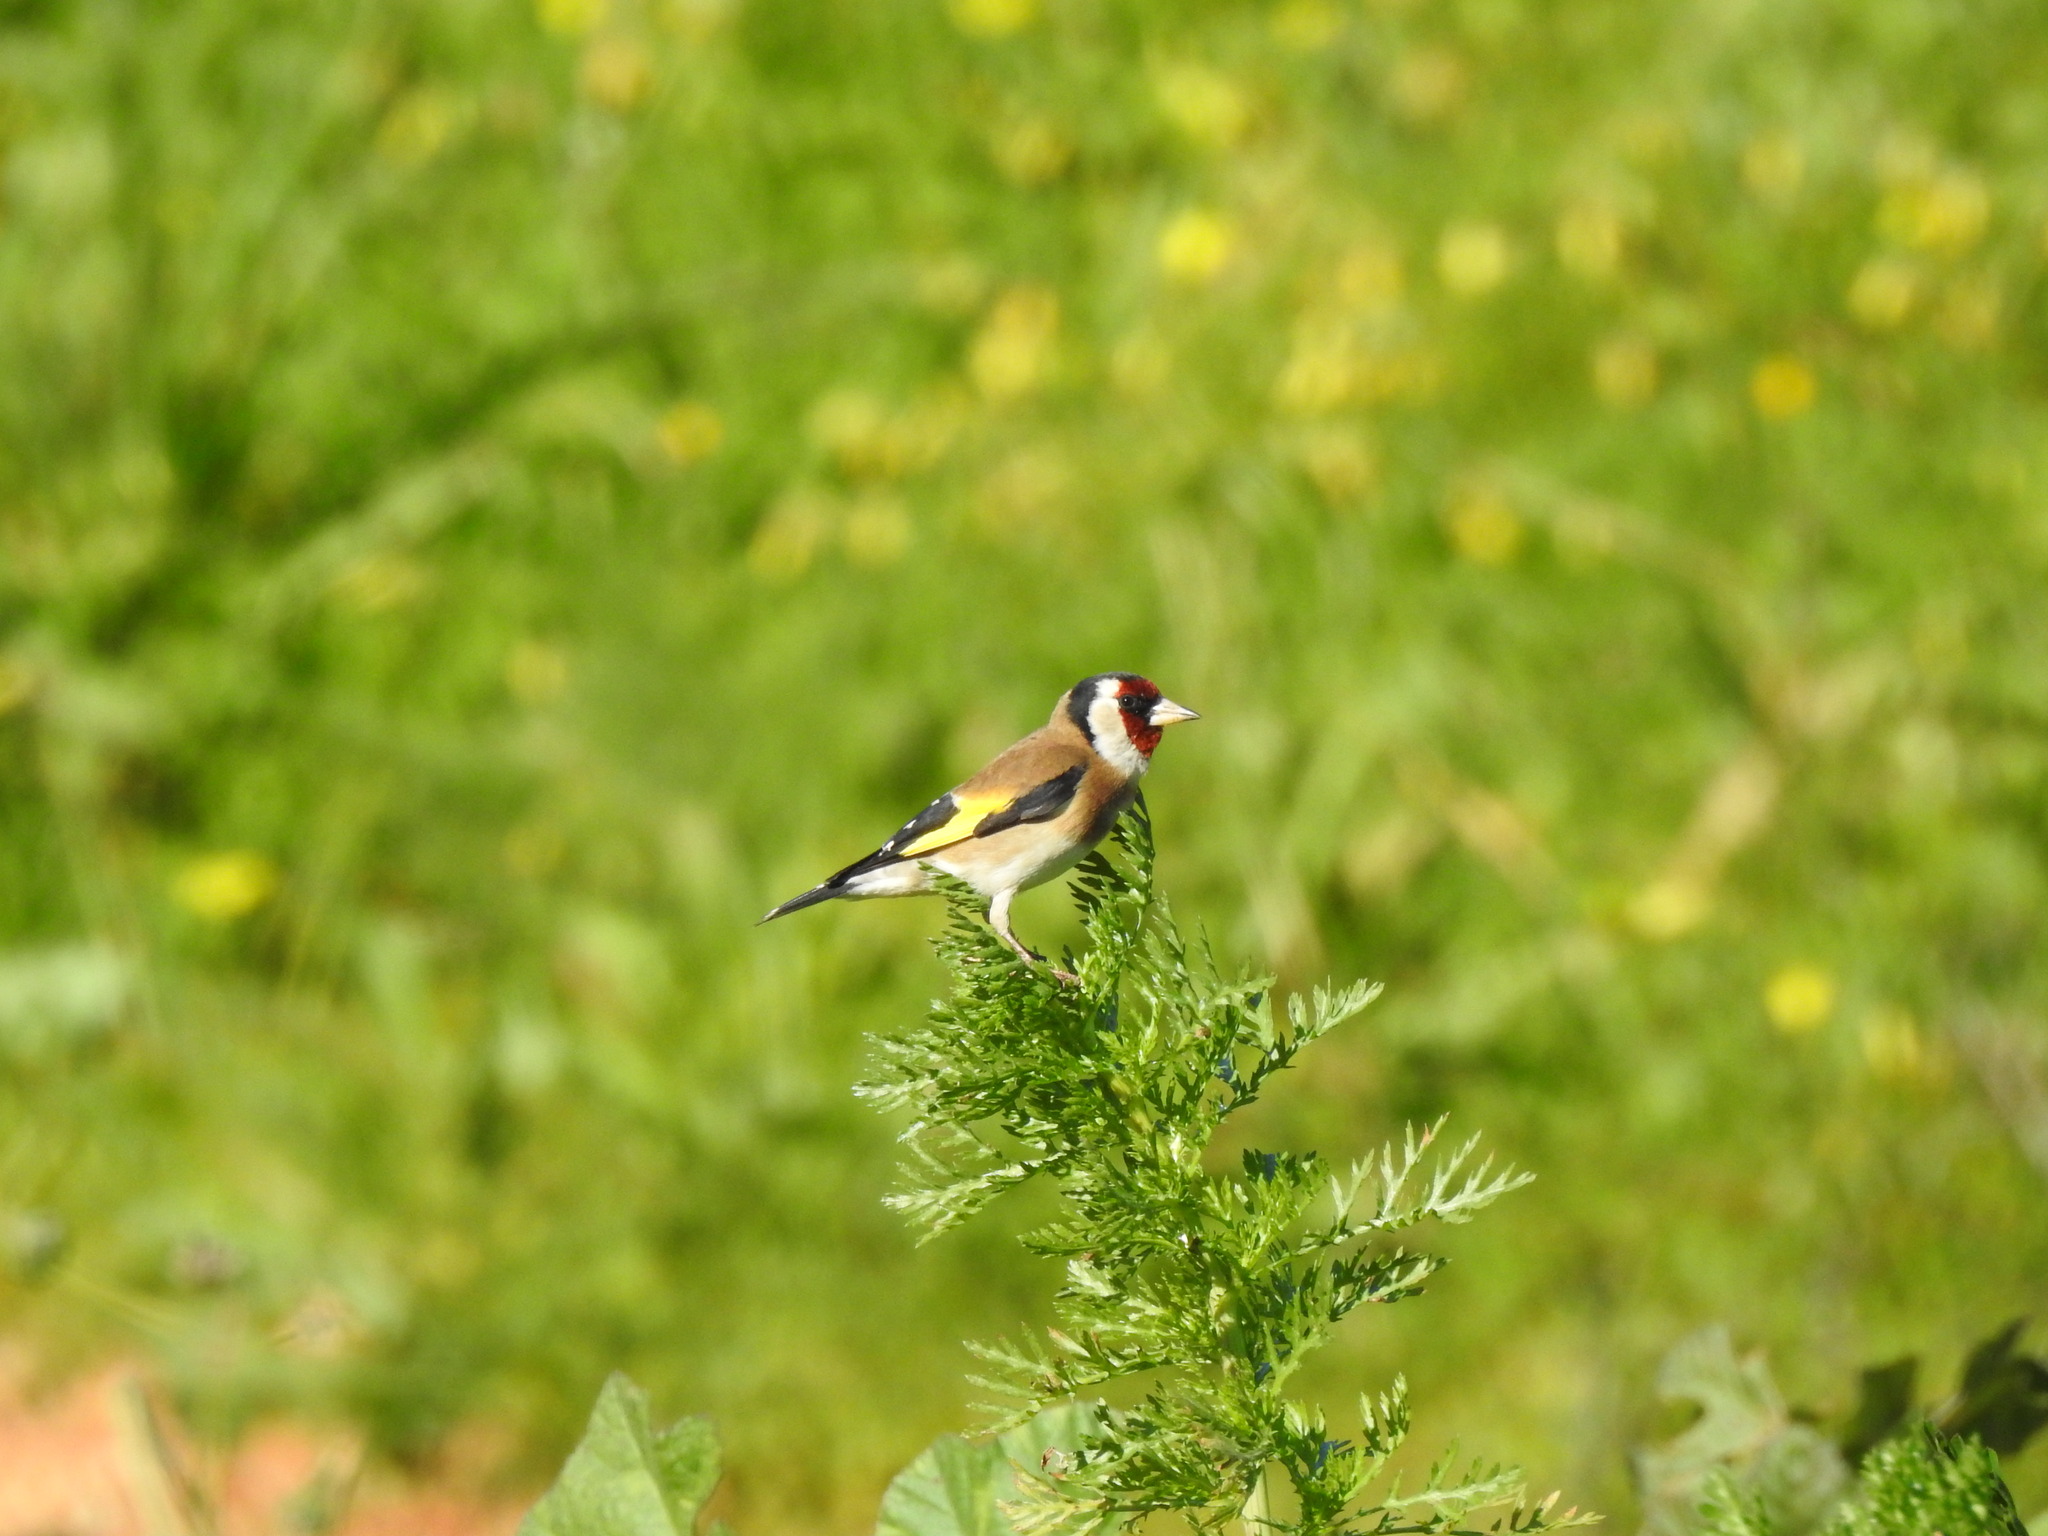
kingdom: Animalia
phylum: Chordata
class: Aves
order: Passeriformes
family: Fringillidae
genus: Carduelis
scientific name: Carduelis carduelis
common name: European goldfinch
